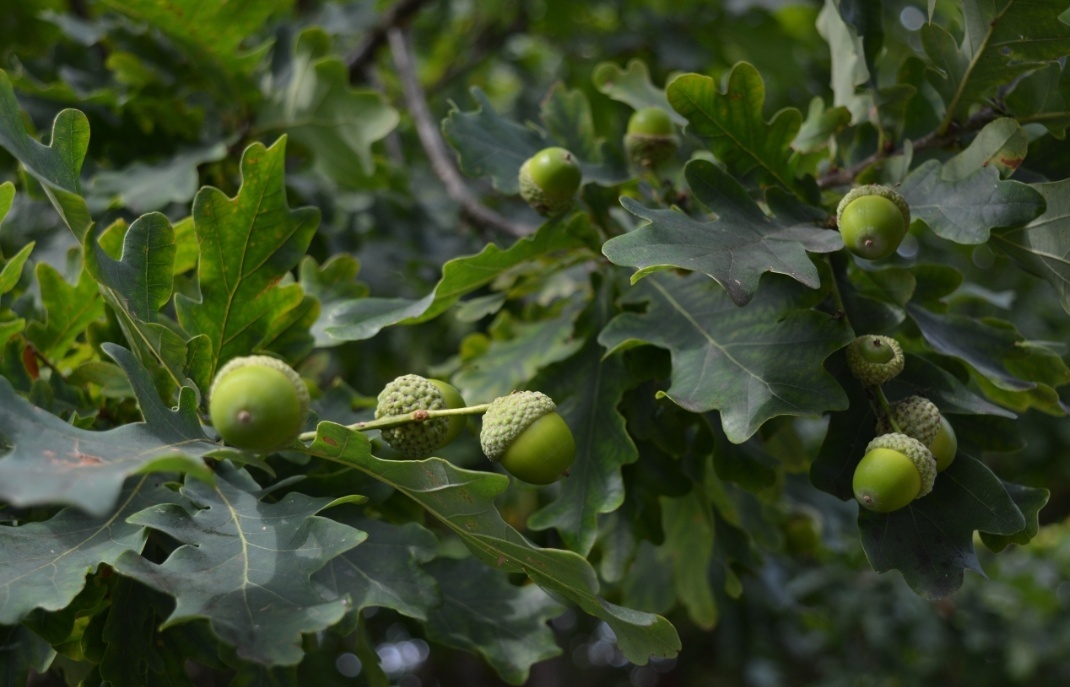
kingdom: Plantae
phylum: Tracheophyta
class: Magnoliopsida
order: Fagales
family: Fagaceae
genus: Quercus
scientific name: Quercus robur
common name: Pedunculate oak
